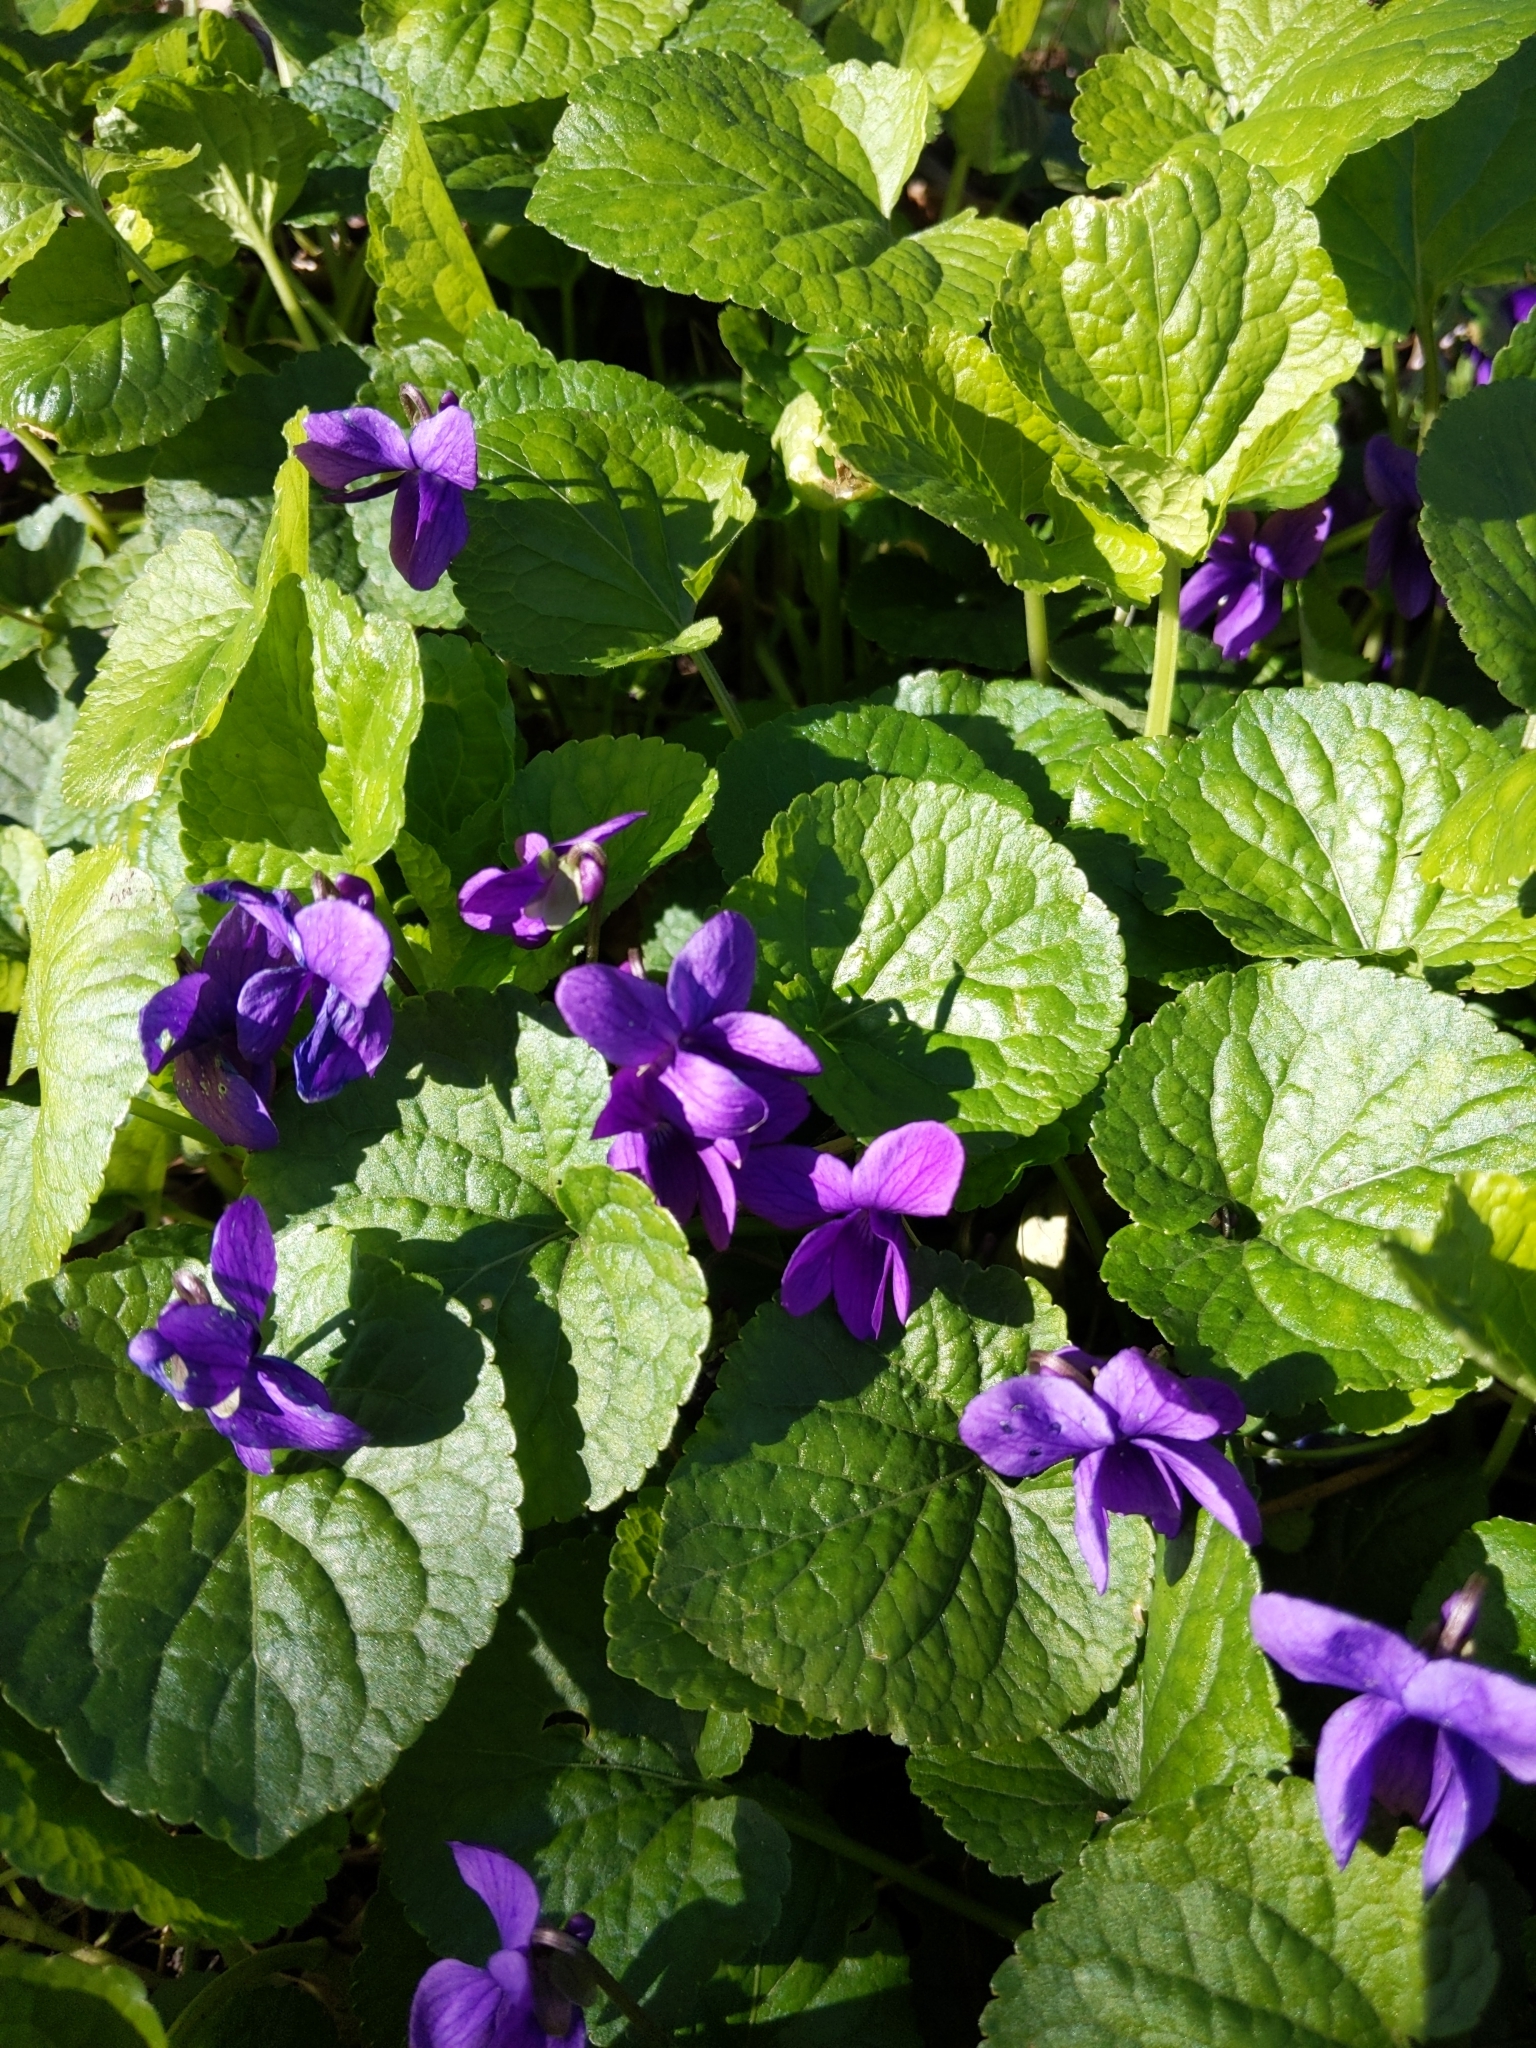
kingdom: Plantae
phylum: Tracheophyta
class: Magnoliopsida
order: Malpighiales
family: Violaceae
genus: Viola
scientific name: Viola odorata
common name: Sweet violet
